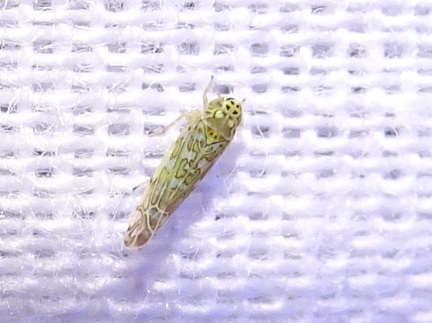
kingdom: Animalia
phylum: Arthropoda
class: Insecta
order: Hemiptera
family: Cicadellidae
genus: Eupteryx
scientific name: Eupteryx decemnotata
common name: Ligurian leafhopper
